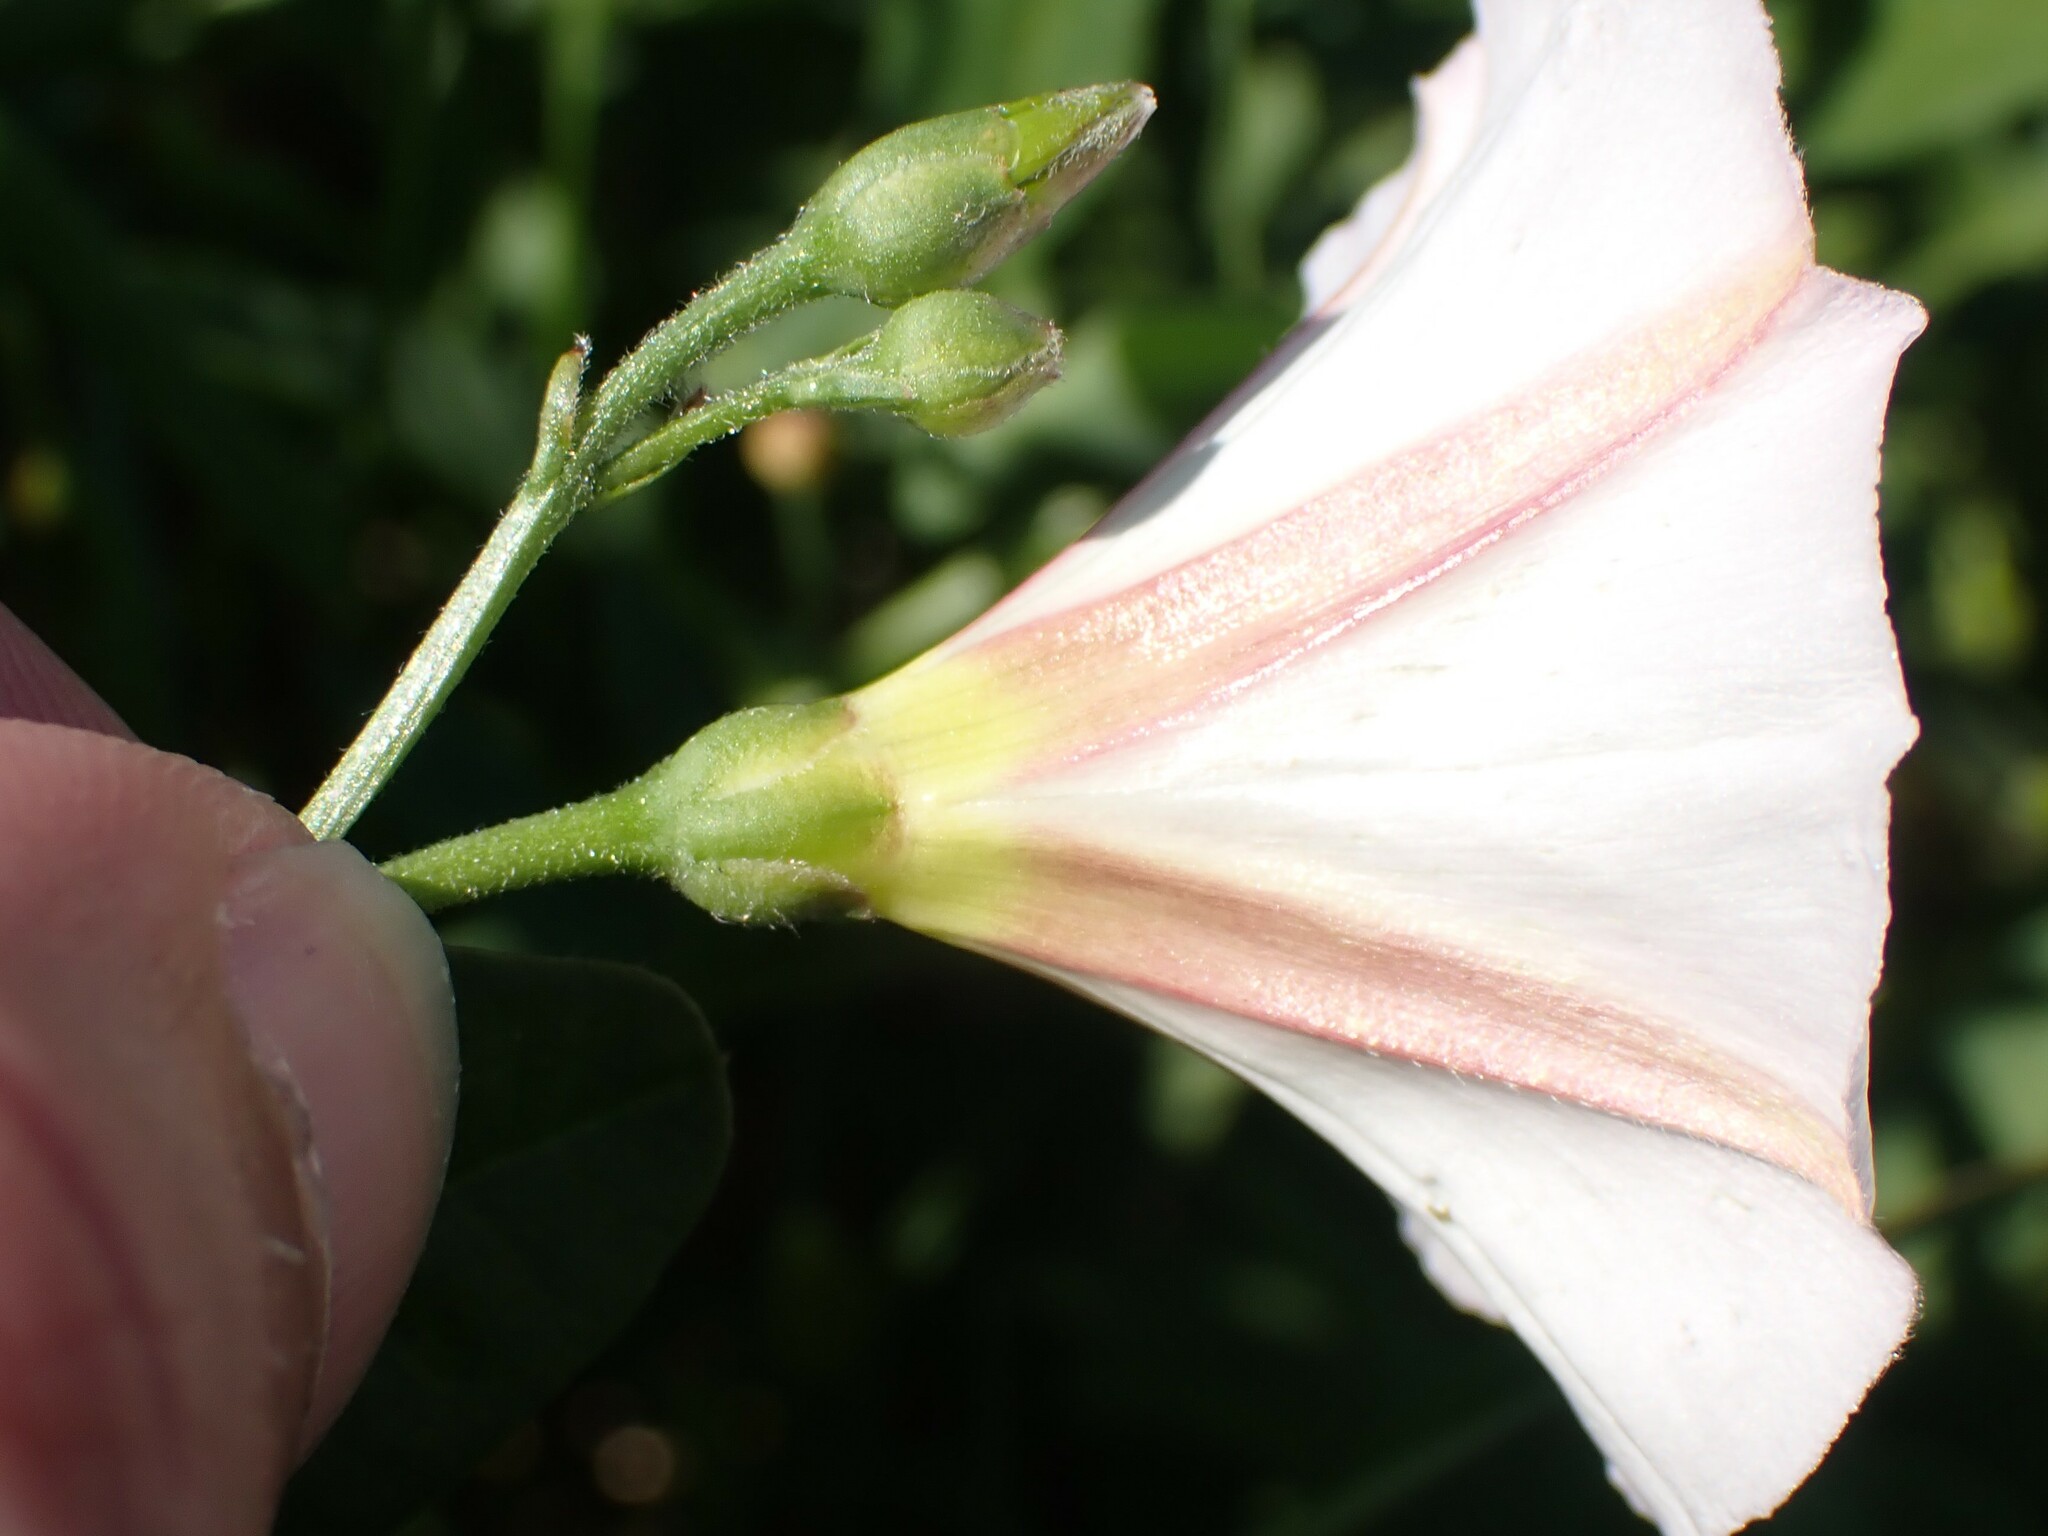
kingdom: Plantae
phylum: Tracheophyta
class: Magnoliopsida
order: Solanales
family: Convolvulaceae
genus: Convolvulus
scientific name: Convolvulus arvensis
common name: Field bindweed
